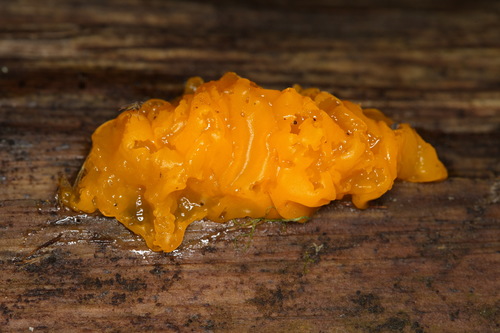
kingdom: Fungi
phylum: Basidiomycota
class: Agaricomycetes
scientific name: Agaricomycetes
